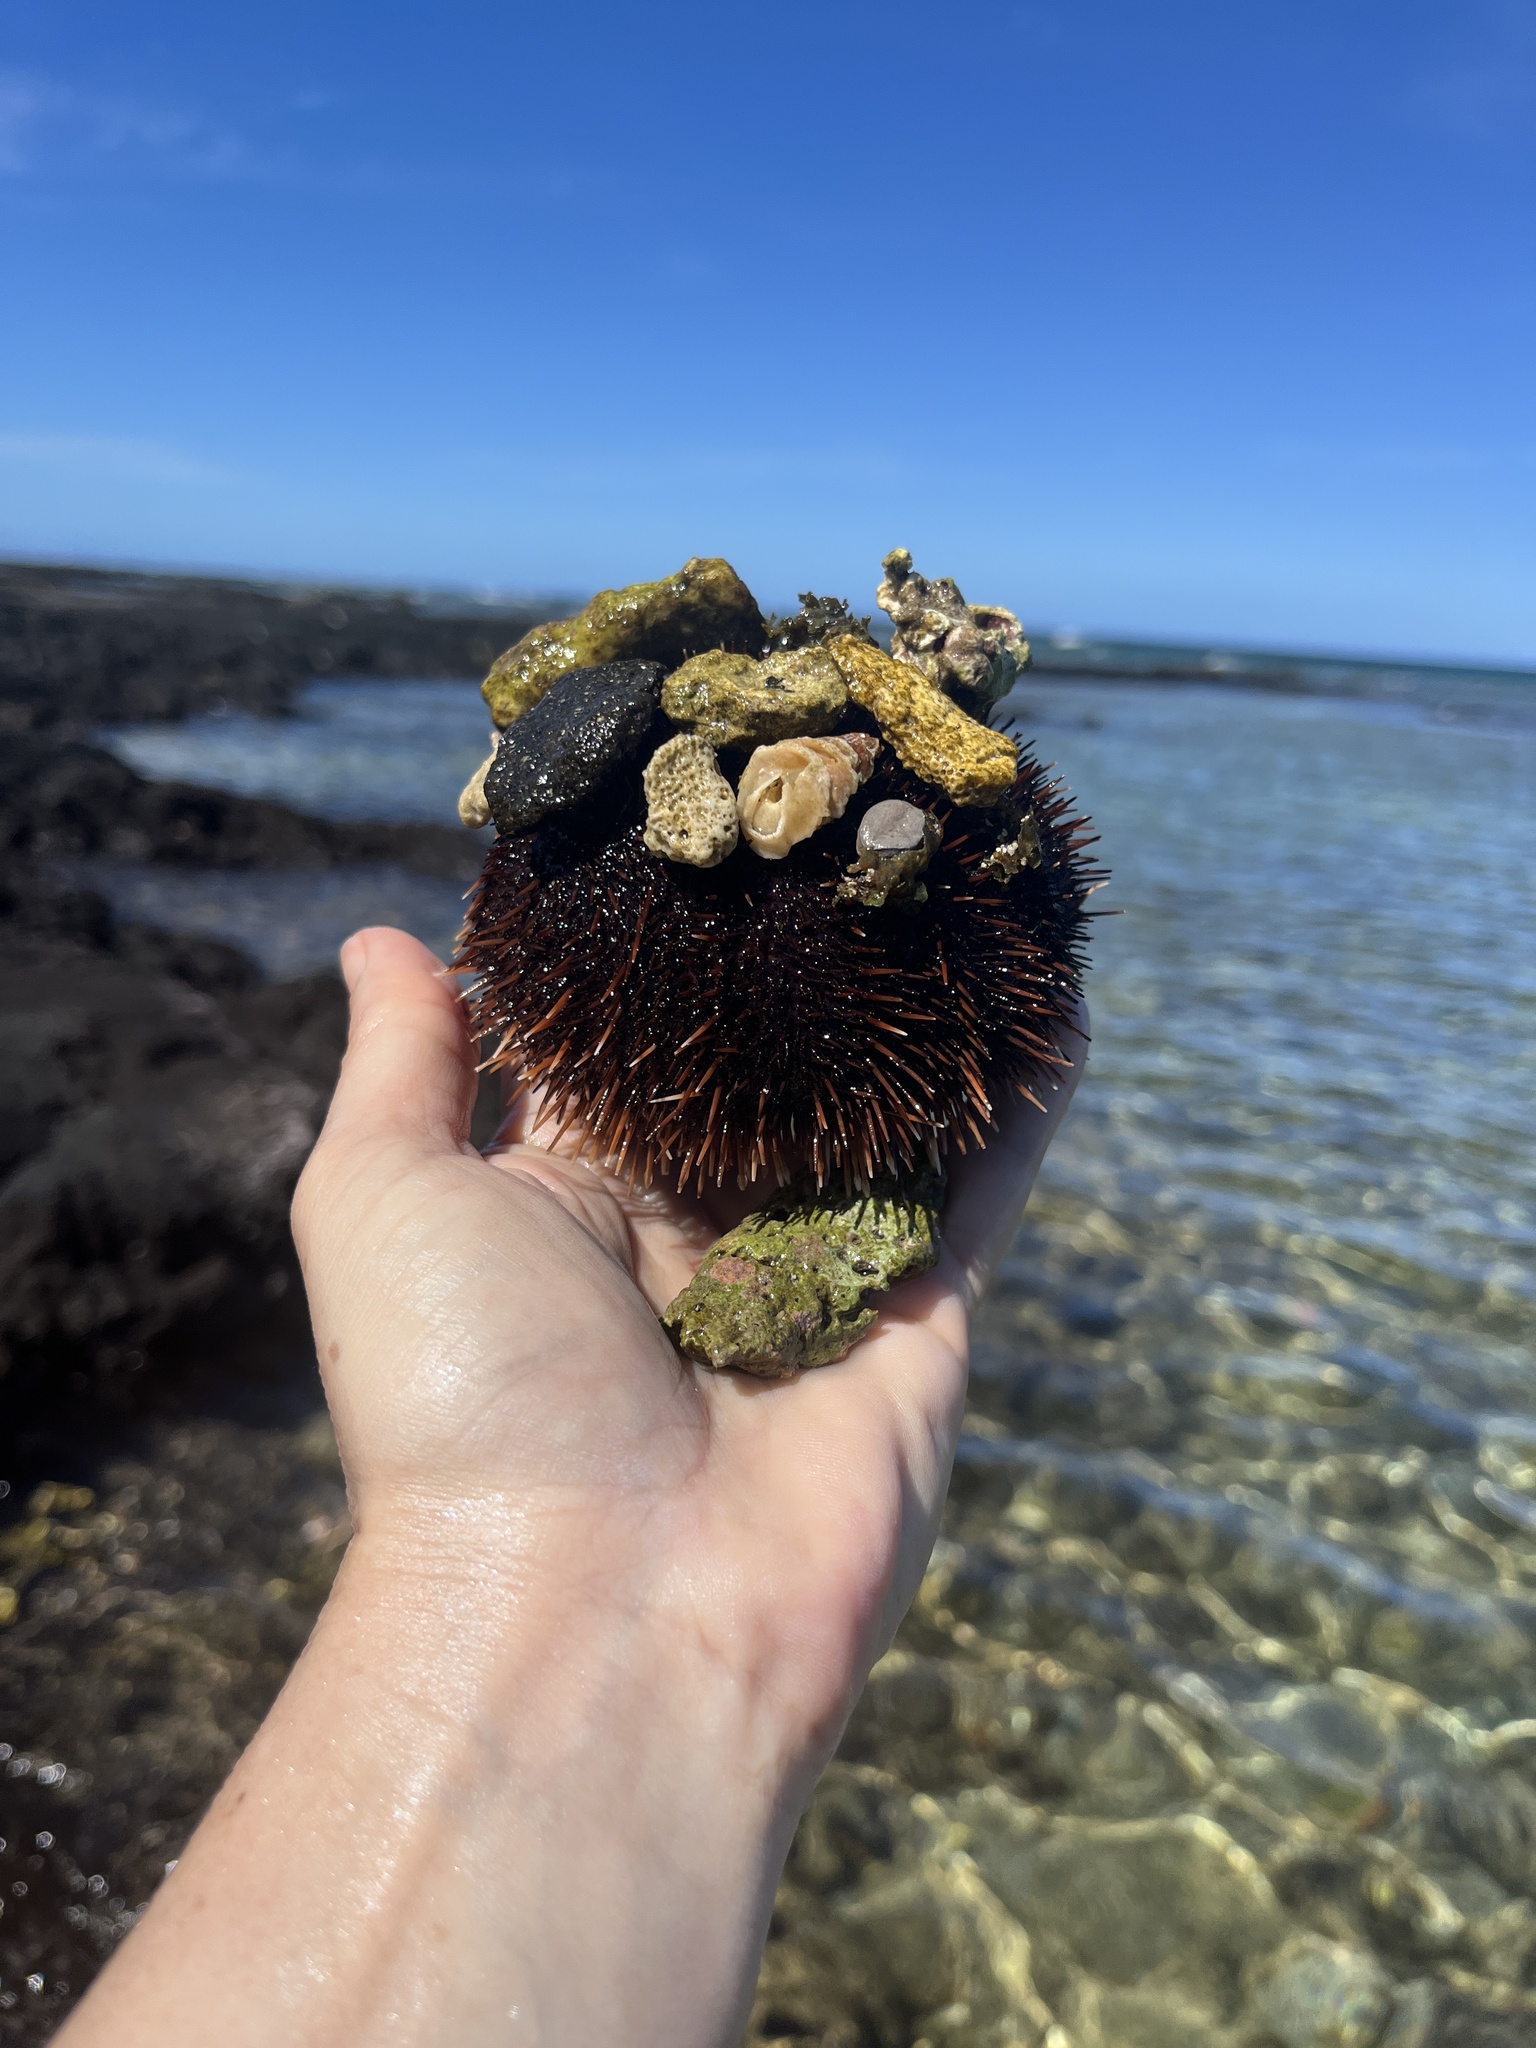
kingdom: Animalia
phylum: Echinodermata
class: Echinoidea
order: Camarodonta
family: Toxopneustidae
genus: Tripneustes
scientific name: Tripneustes gratilla
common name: Bischofsmützenseeigel
